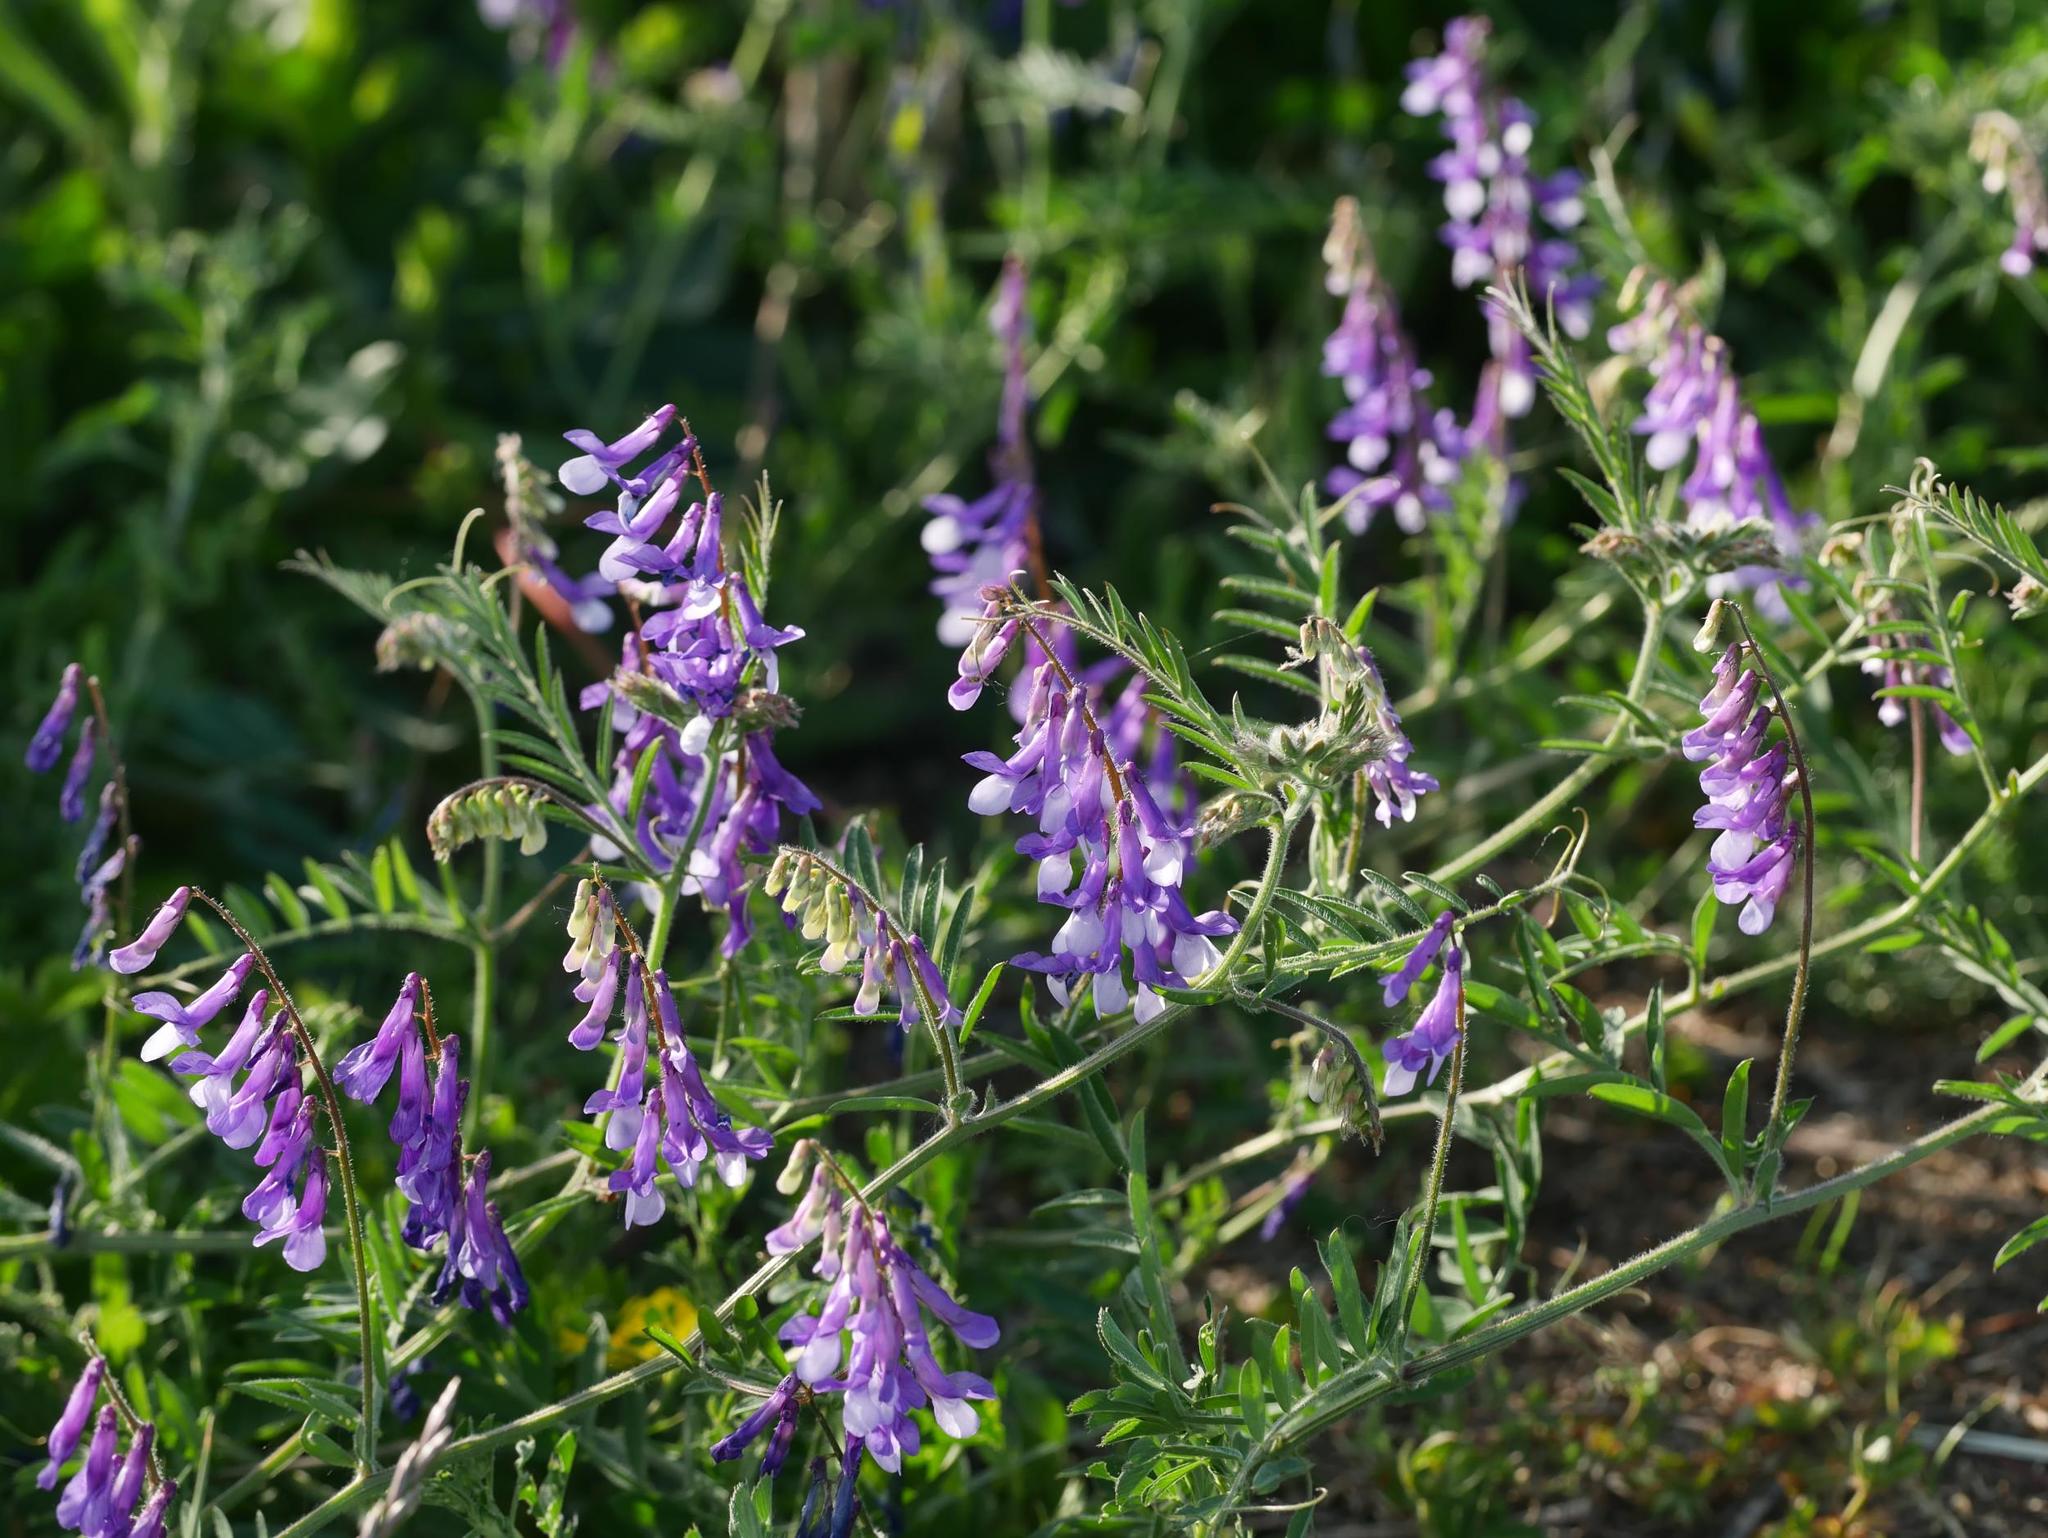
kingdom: Plantae
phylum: Tracheophyta
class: Magnoliopsida
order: Fabales
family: Fabaceae
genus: Vicia
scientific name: Vicia villosa
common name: Fodder vetch
